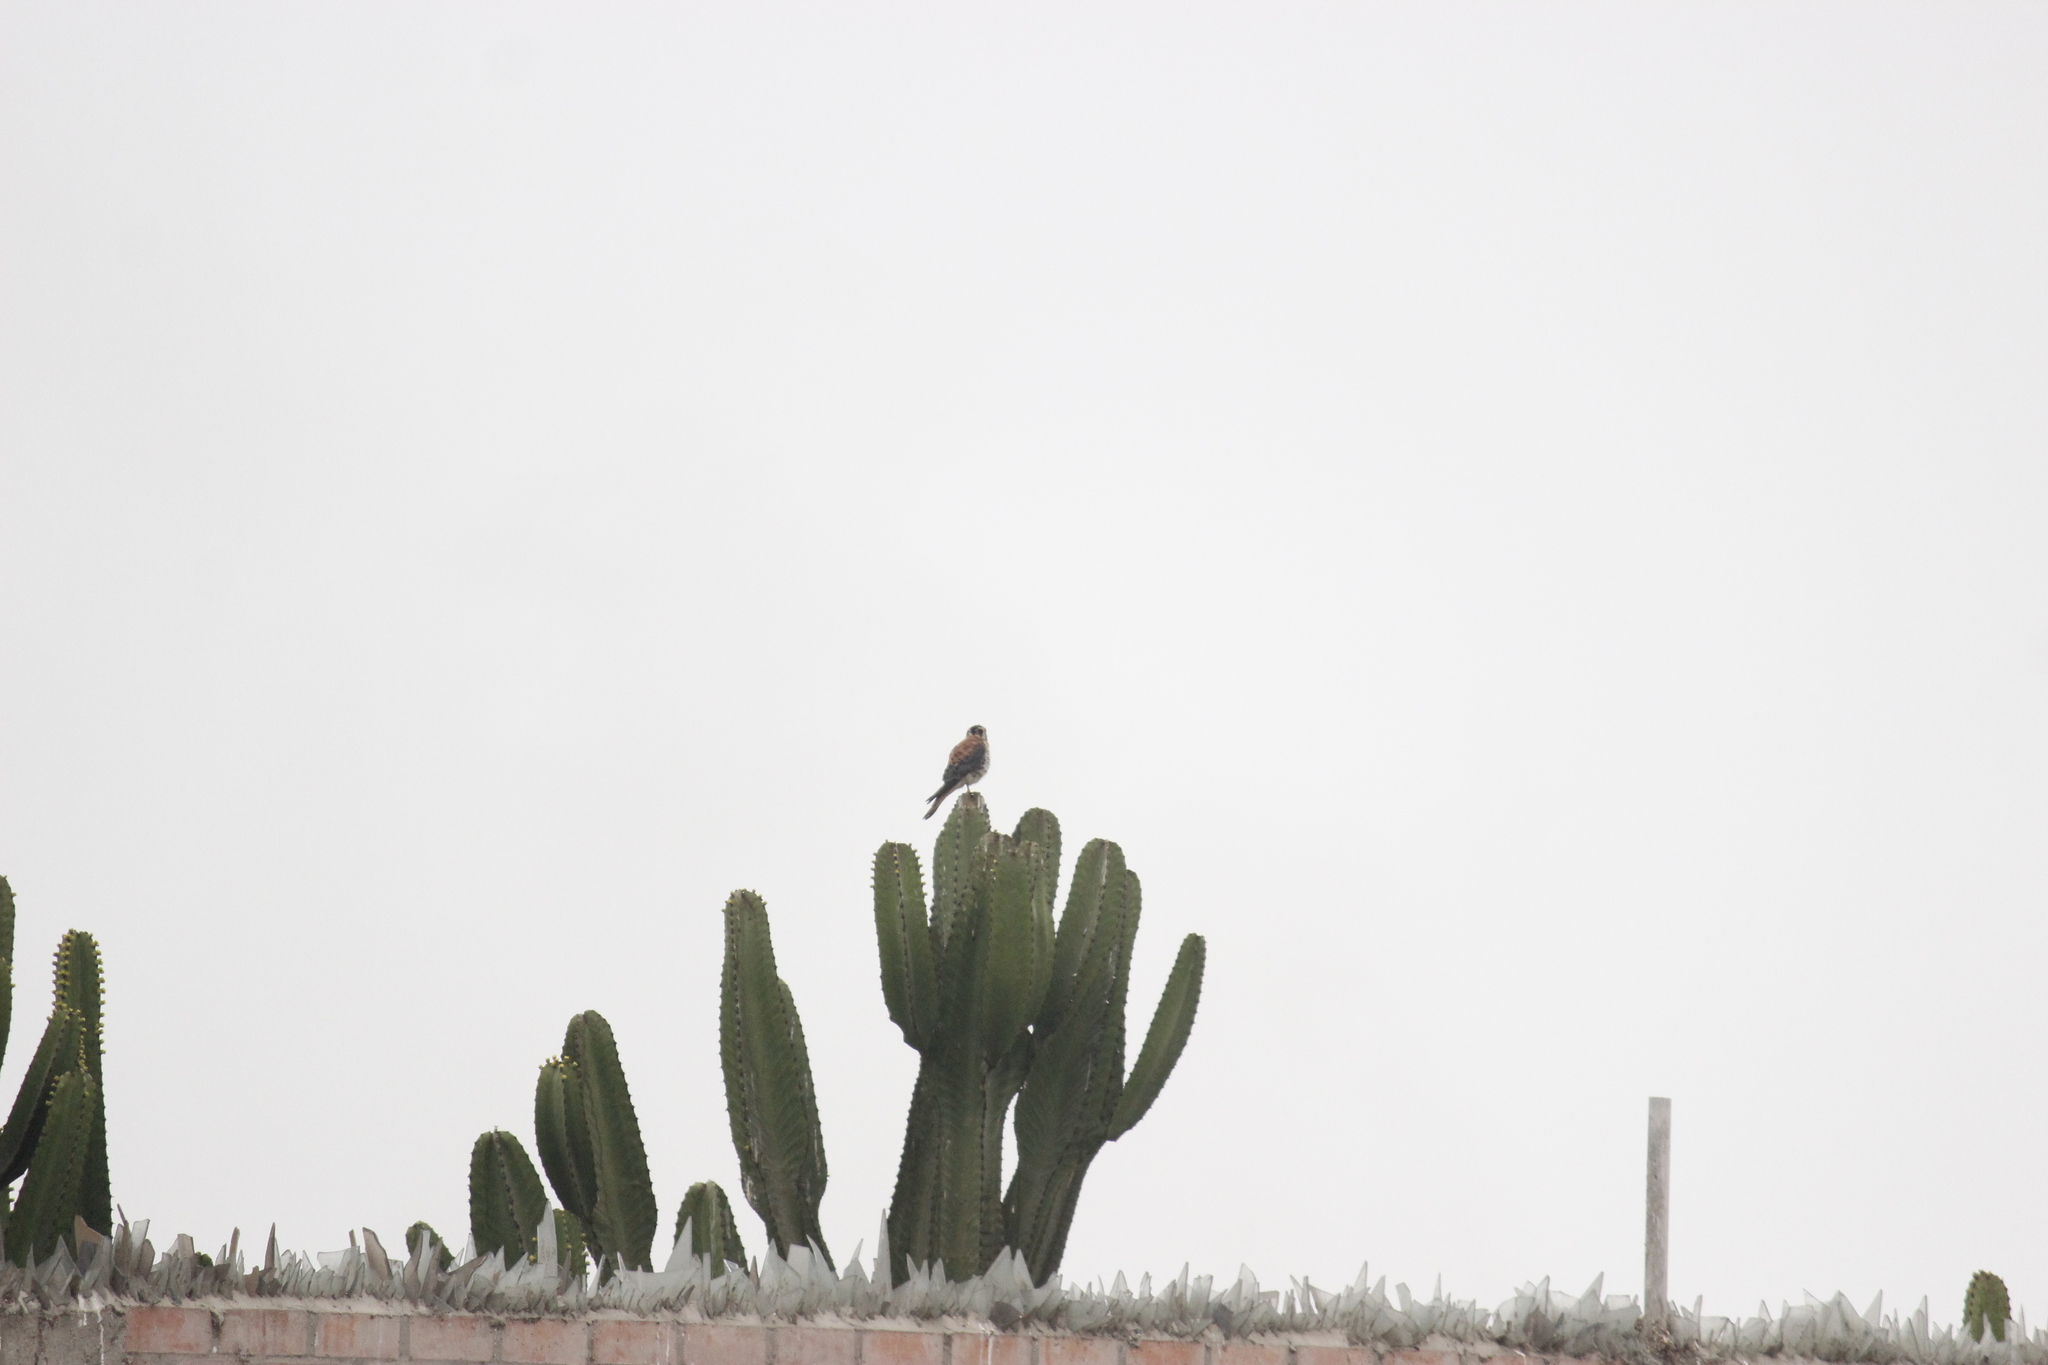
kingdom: Animalia
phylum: Chordata
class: Aves
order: Falconiformes
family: Falconidae
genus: Falco
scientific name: Falco sparverius
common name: American kestrel
